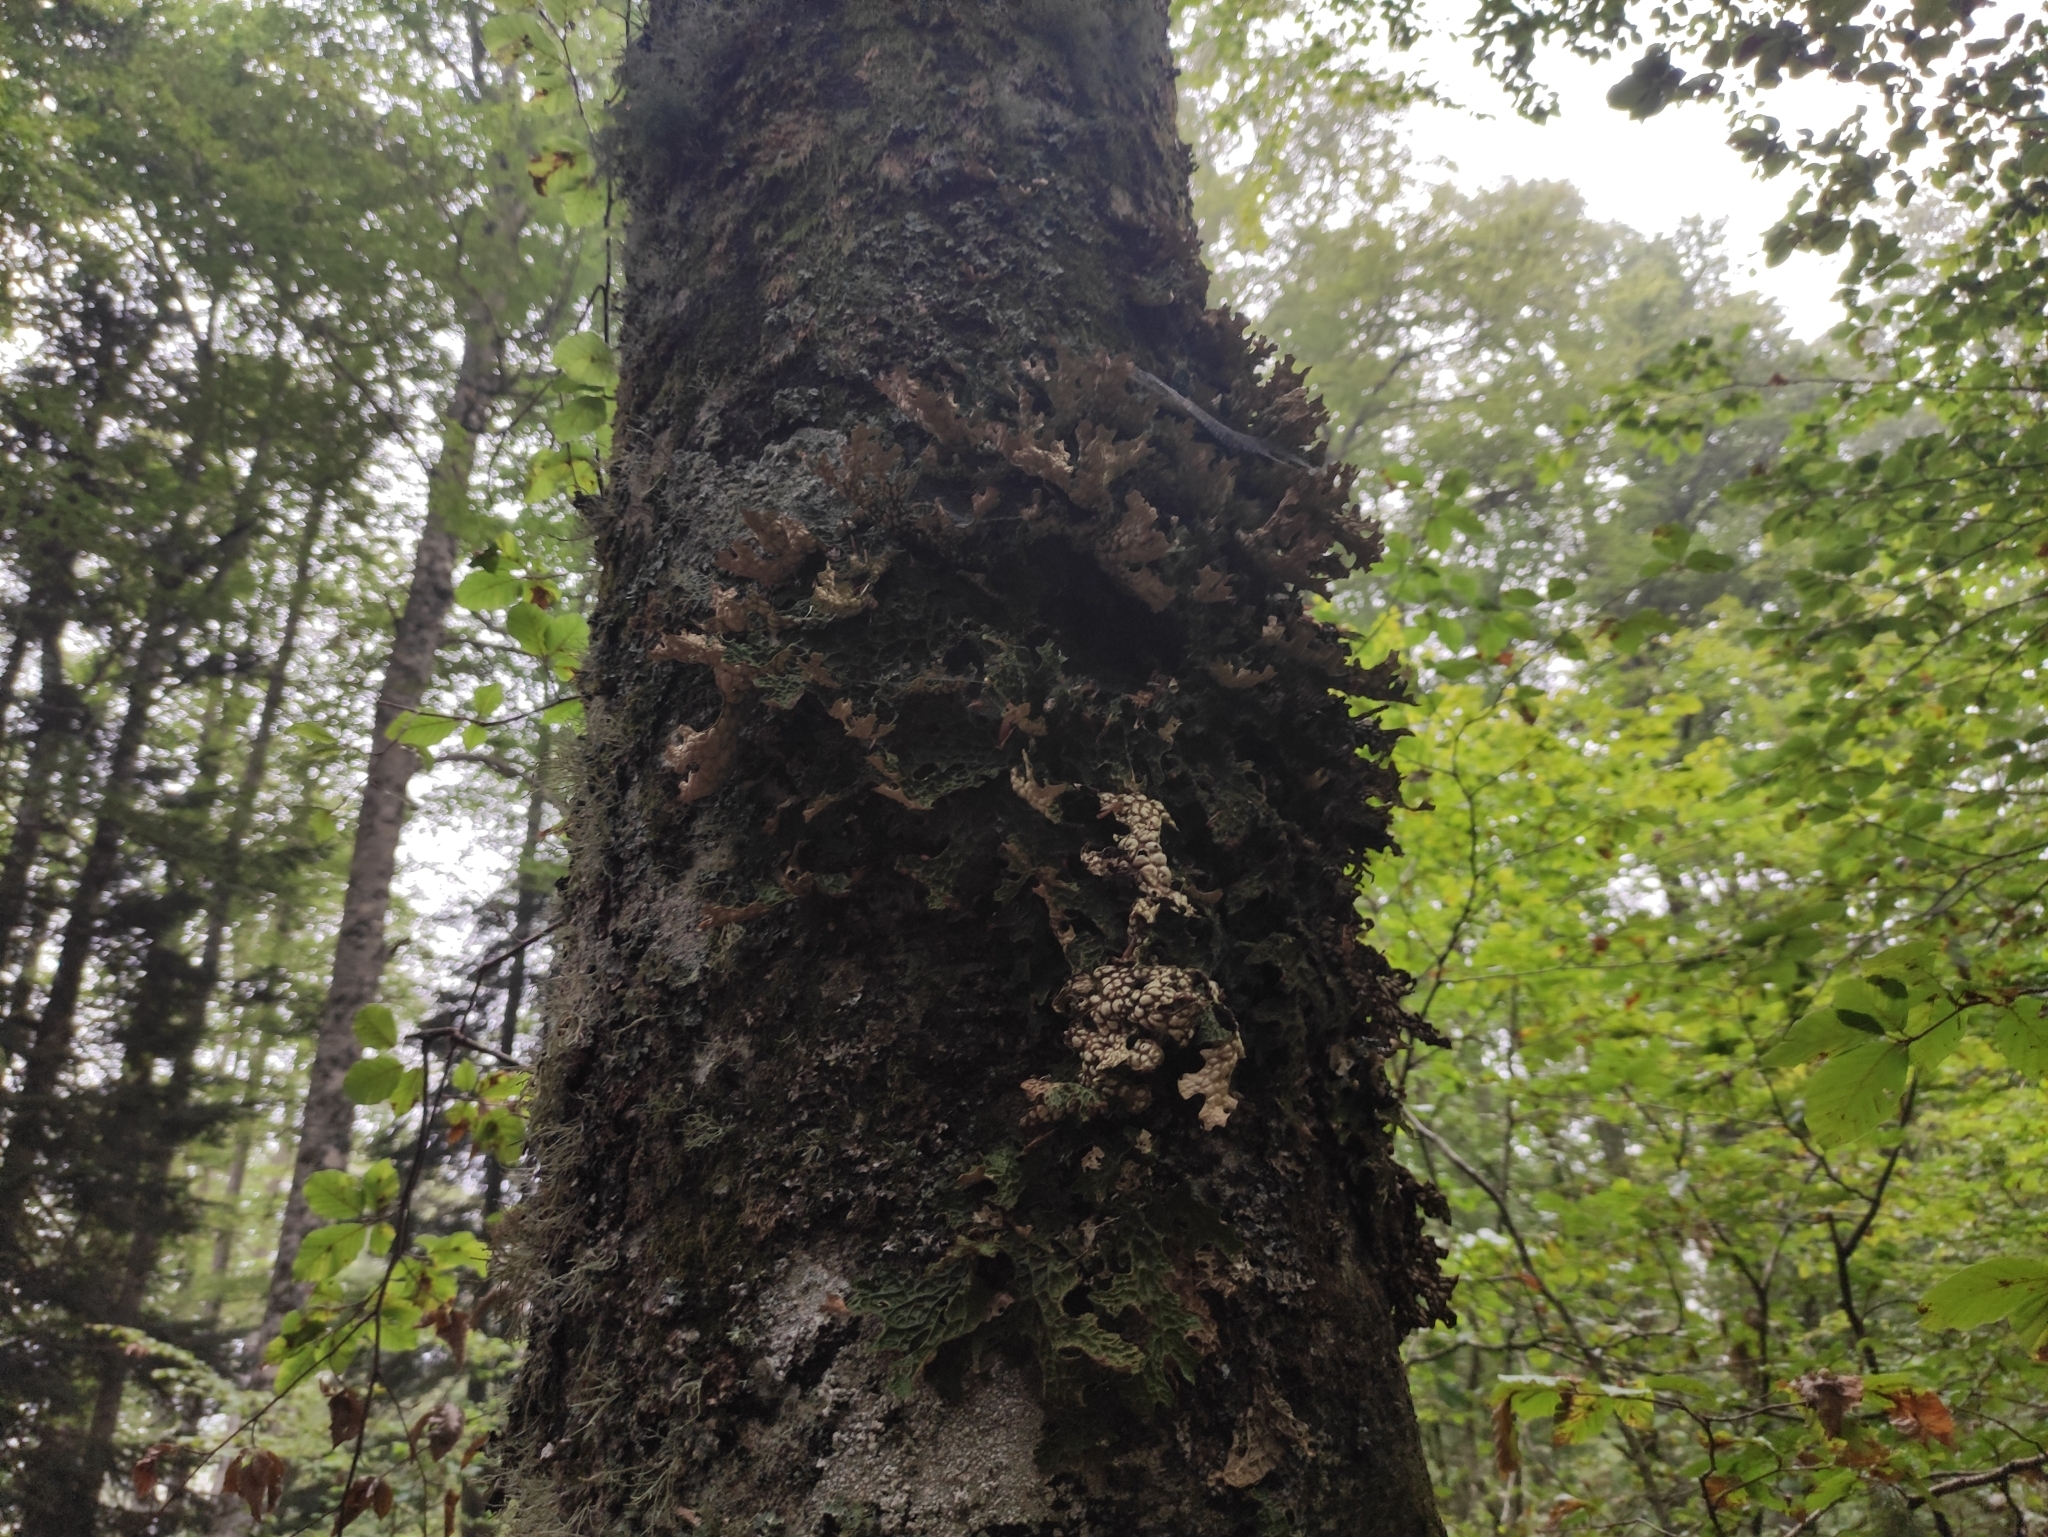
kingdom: Fungi
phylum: Ascomycota
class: Lecanoromycetes
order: Peltigerales
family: Lobariaceae
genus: Lobaria
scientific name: Lobaria pulmonaria
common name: Lungwort
